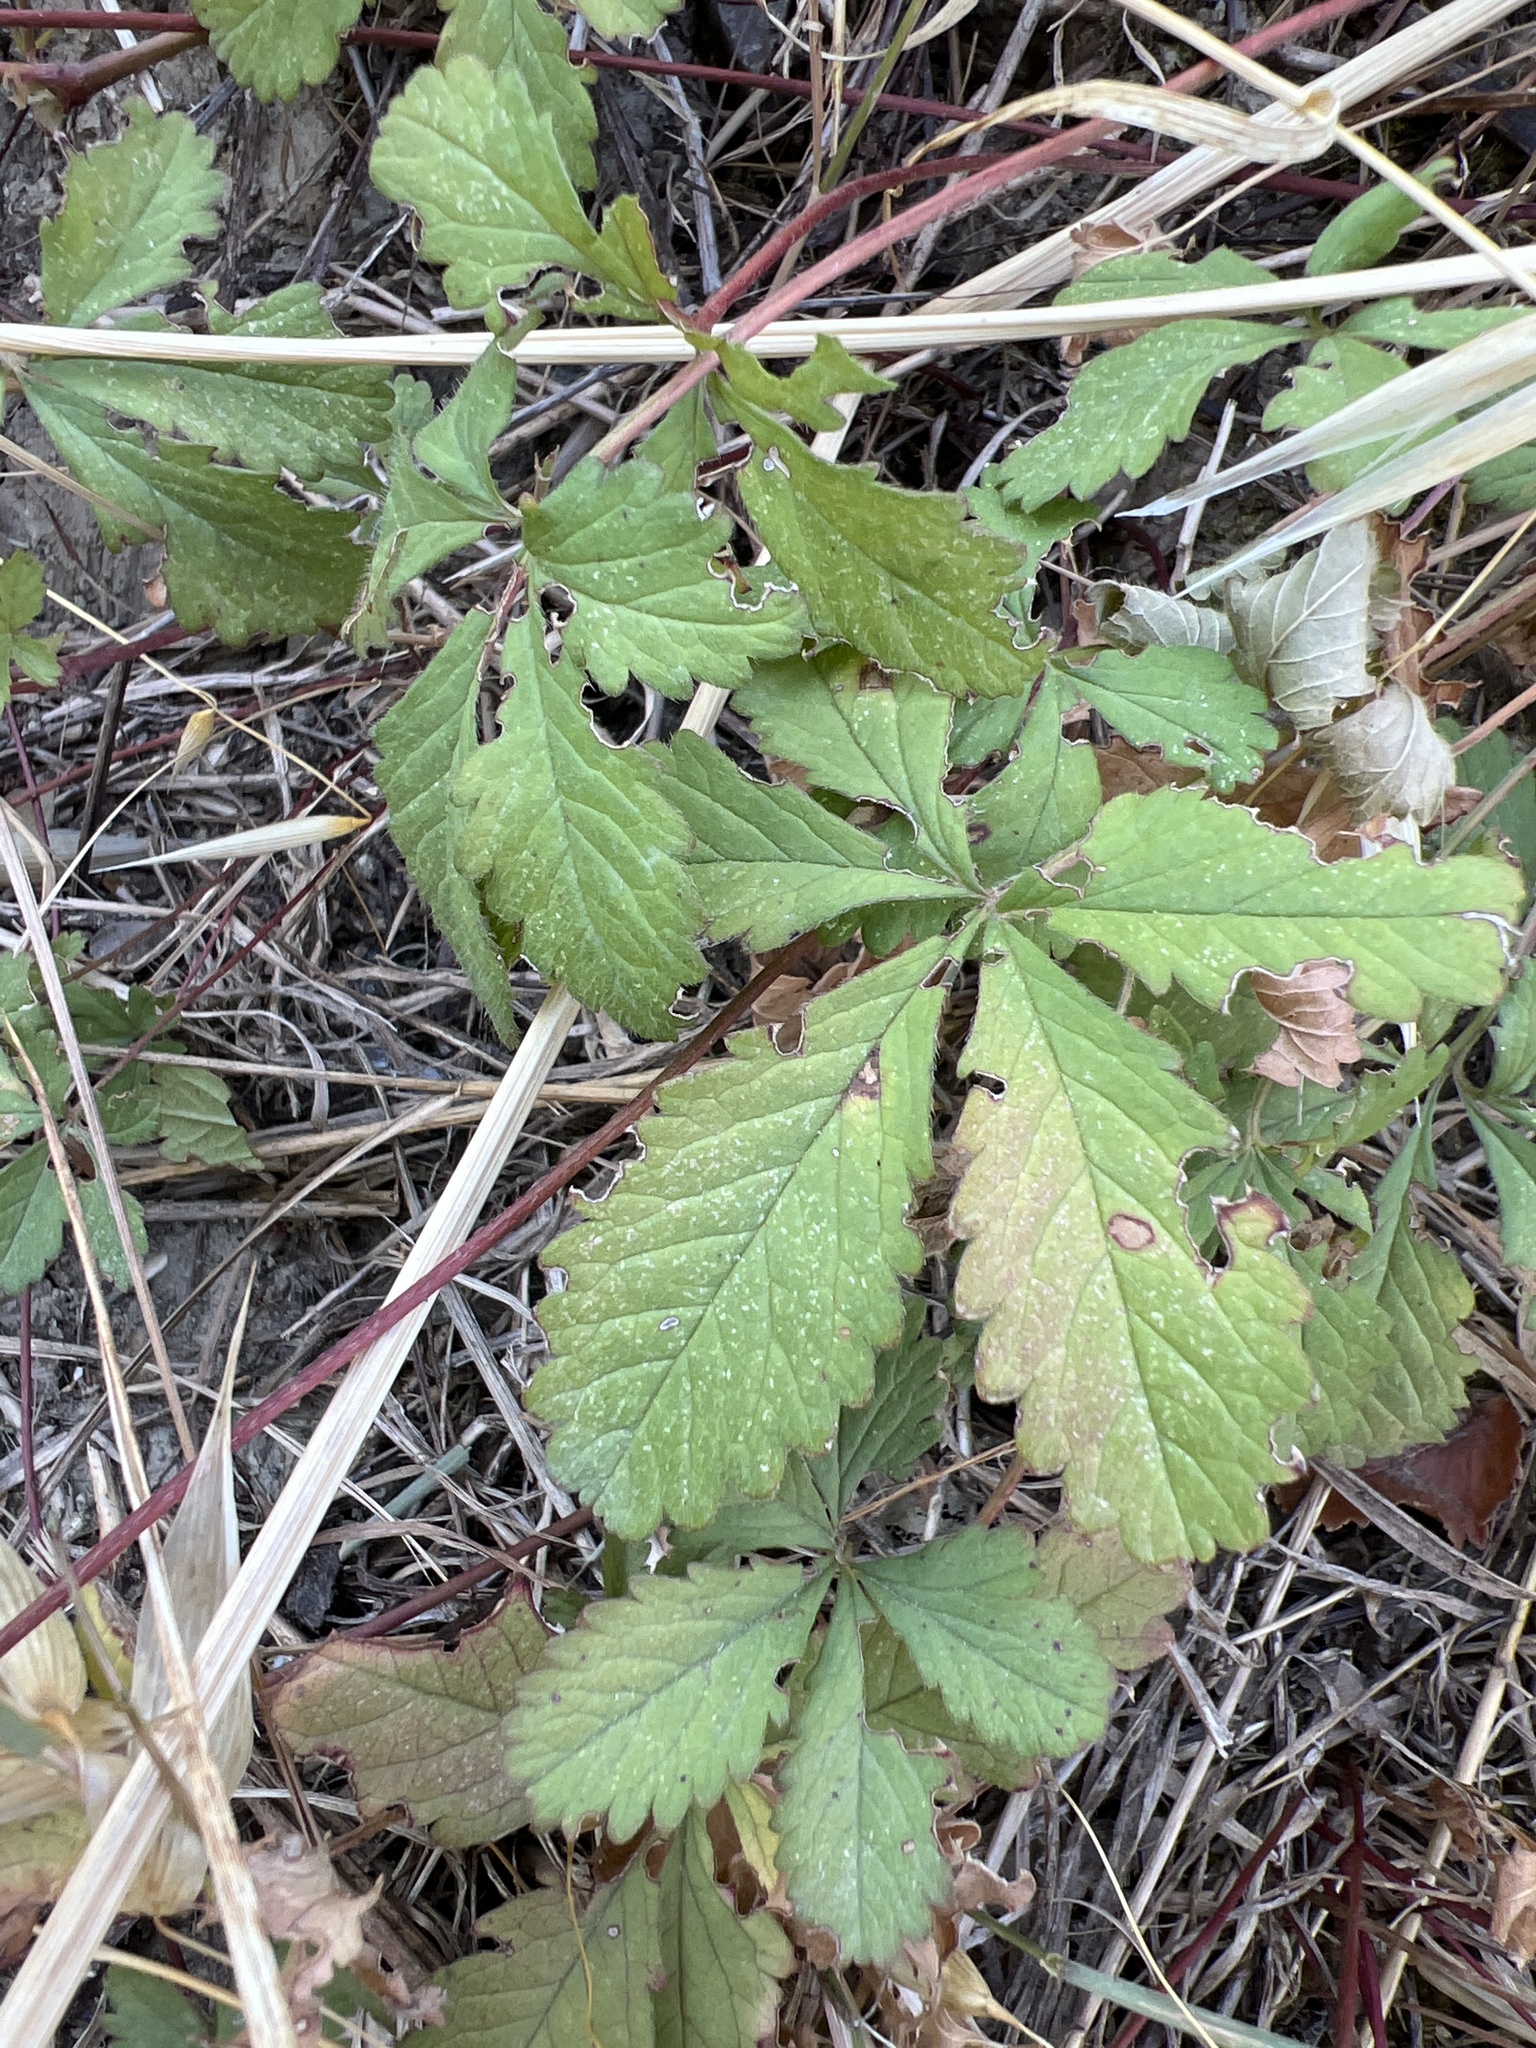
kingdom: Plantae
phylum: Tracheophyta
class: Magnoliopsida
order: Rosales
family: Rosaceae
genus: Potentilla
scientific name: Potentilla reptans
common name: Creeping cinquefoil
